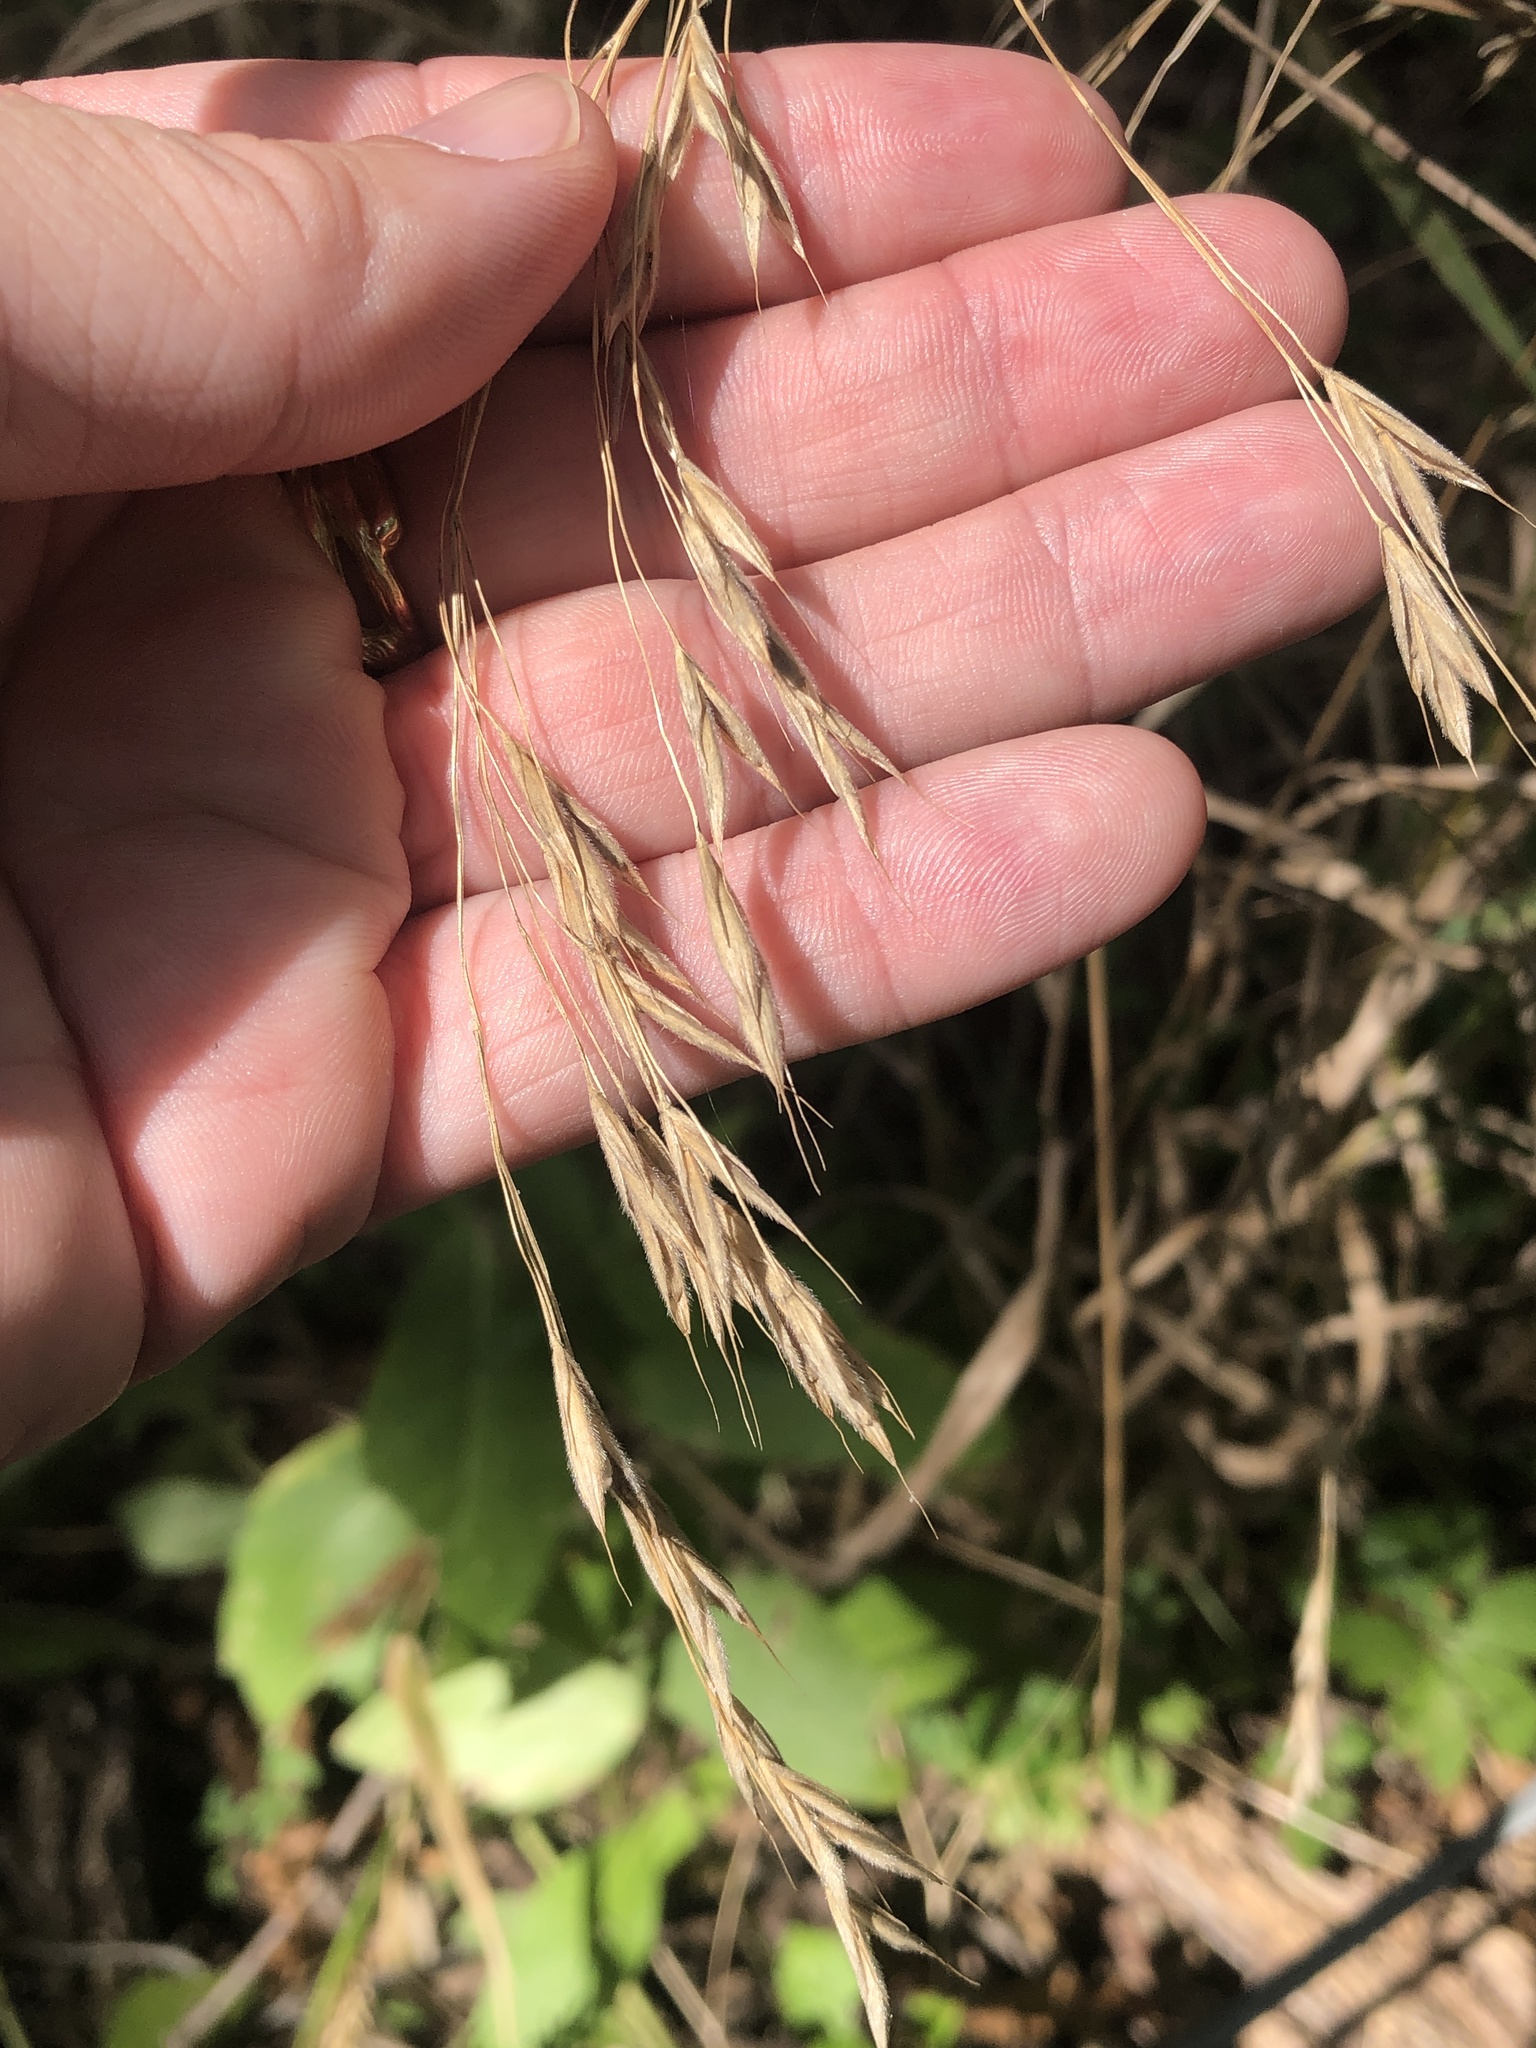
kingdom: Plantae
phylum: Tracheophyta
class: Liliopsida
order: Poales
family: Poaceae
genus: Bromus
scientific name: Bromus pubescens
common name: Hairy wood brome grass
